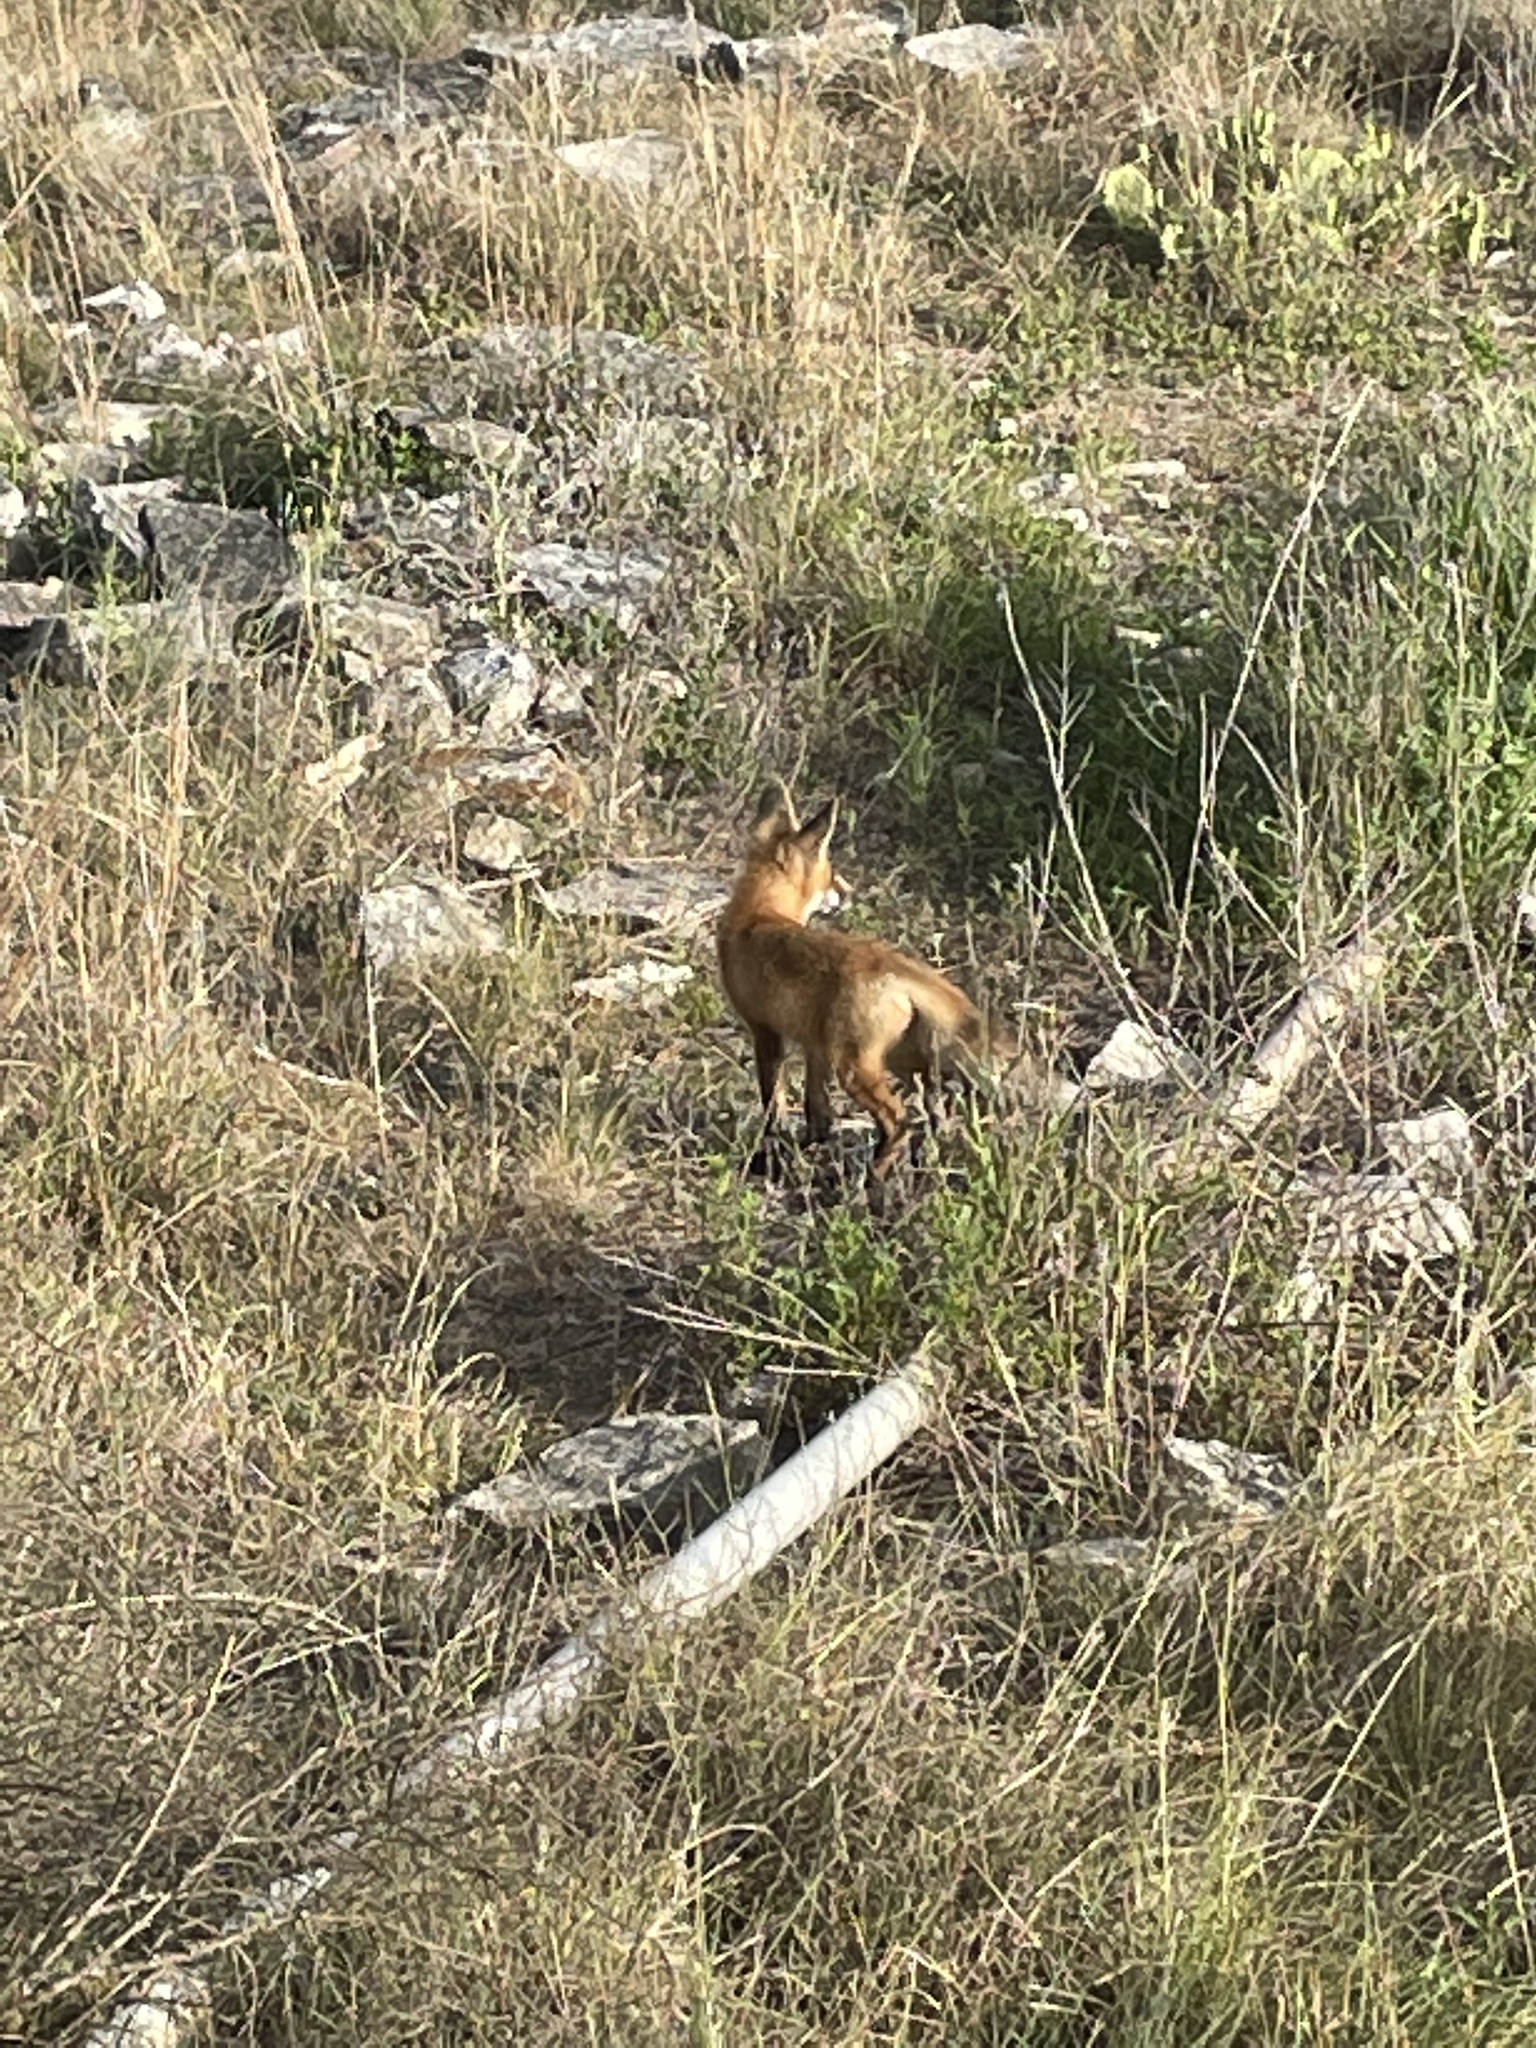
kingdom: Animalia
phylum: Chordata
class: Mammalia
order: Carnivora
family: Canidae
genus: Vulpes
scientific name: Vulpes vulpes
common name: Red fox
